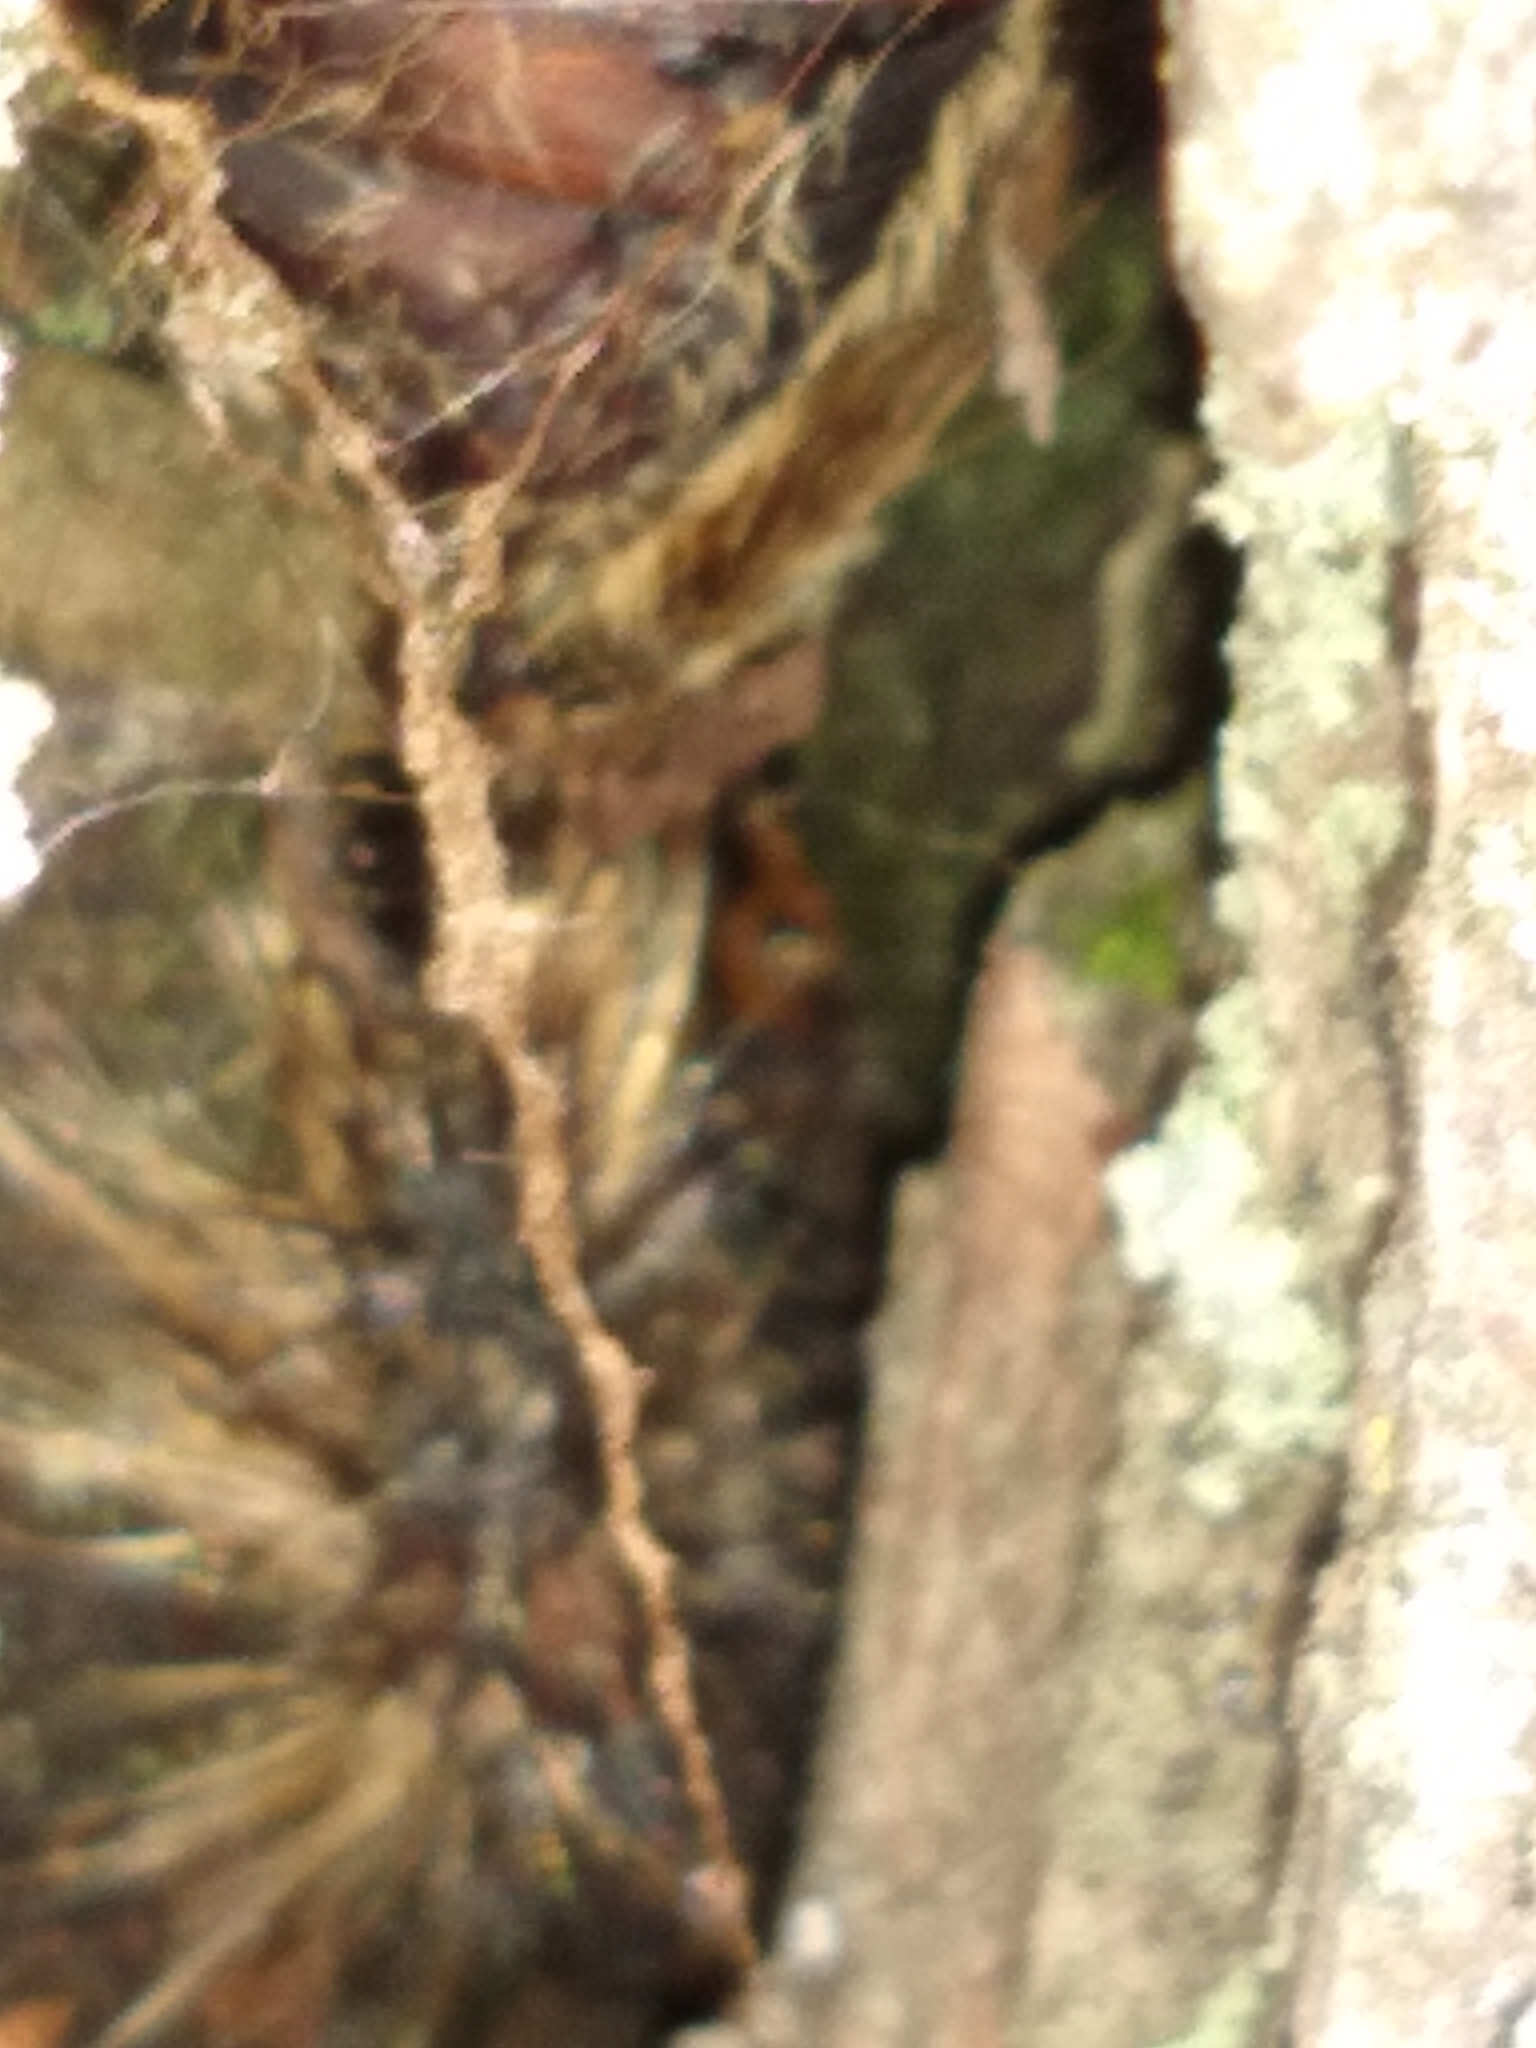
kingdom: Animalia
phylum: Arthropoda
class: Insecta
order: Lepidoptera
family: Erebidae
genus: Lymantria
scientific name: Lymantria dispar
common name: Gypsy moth
